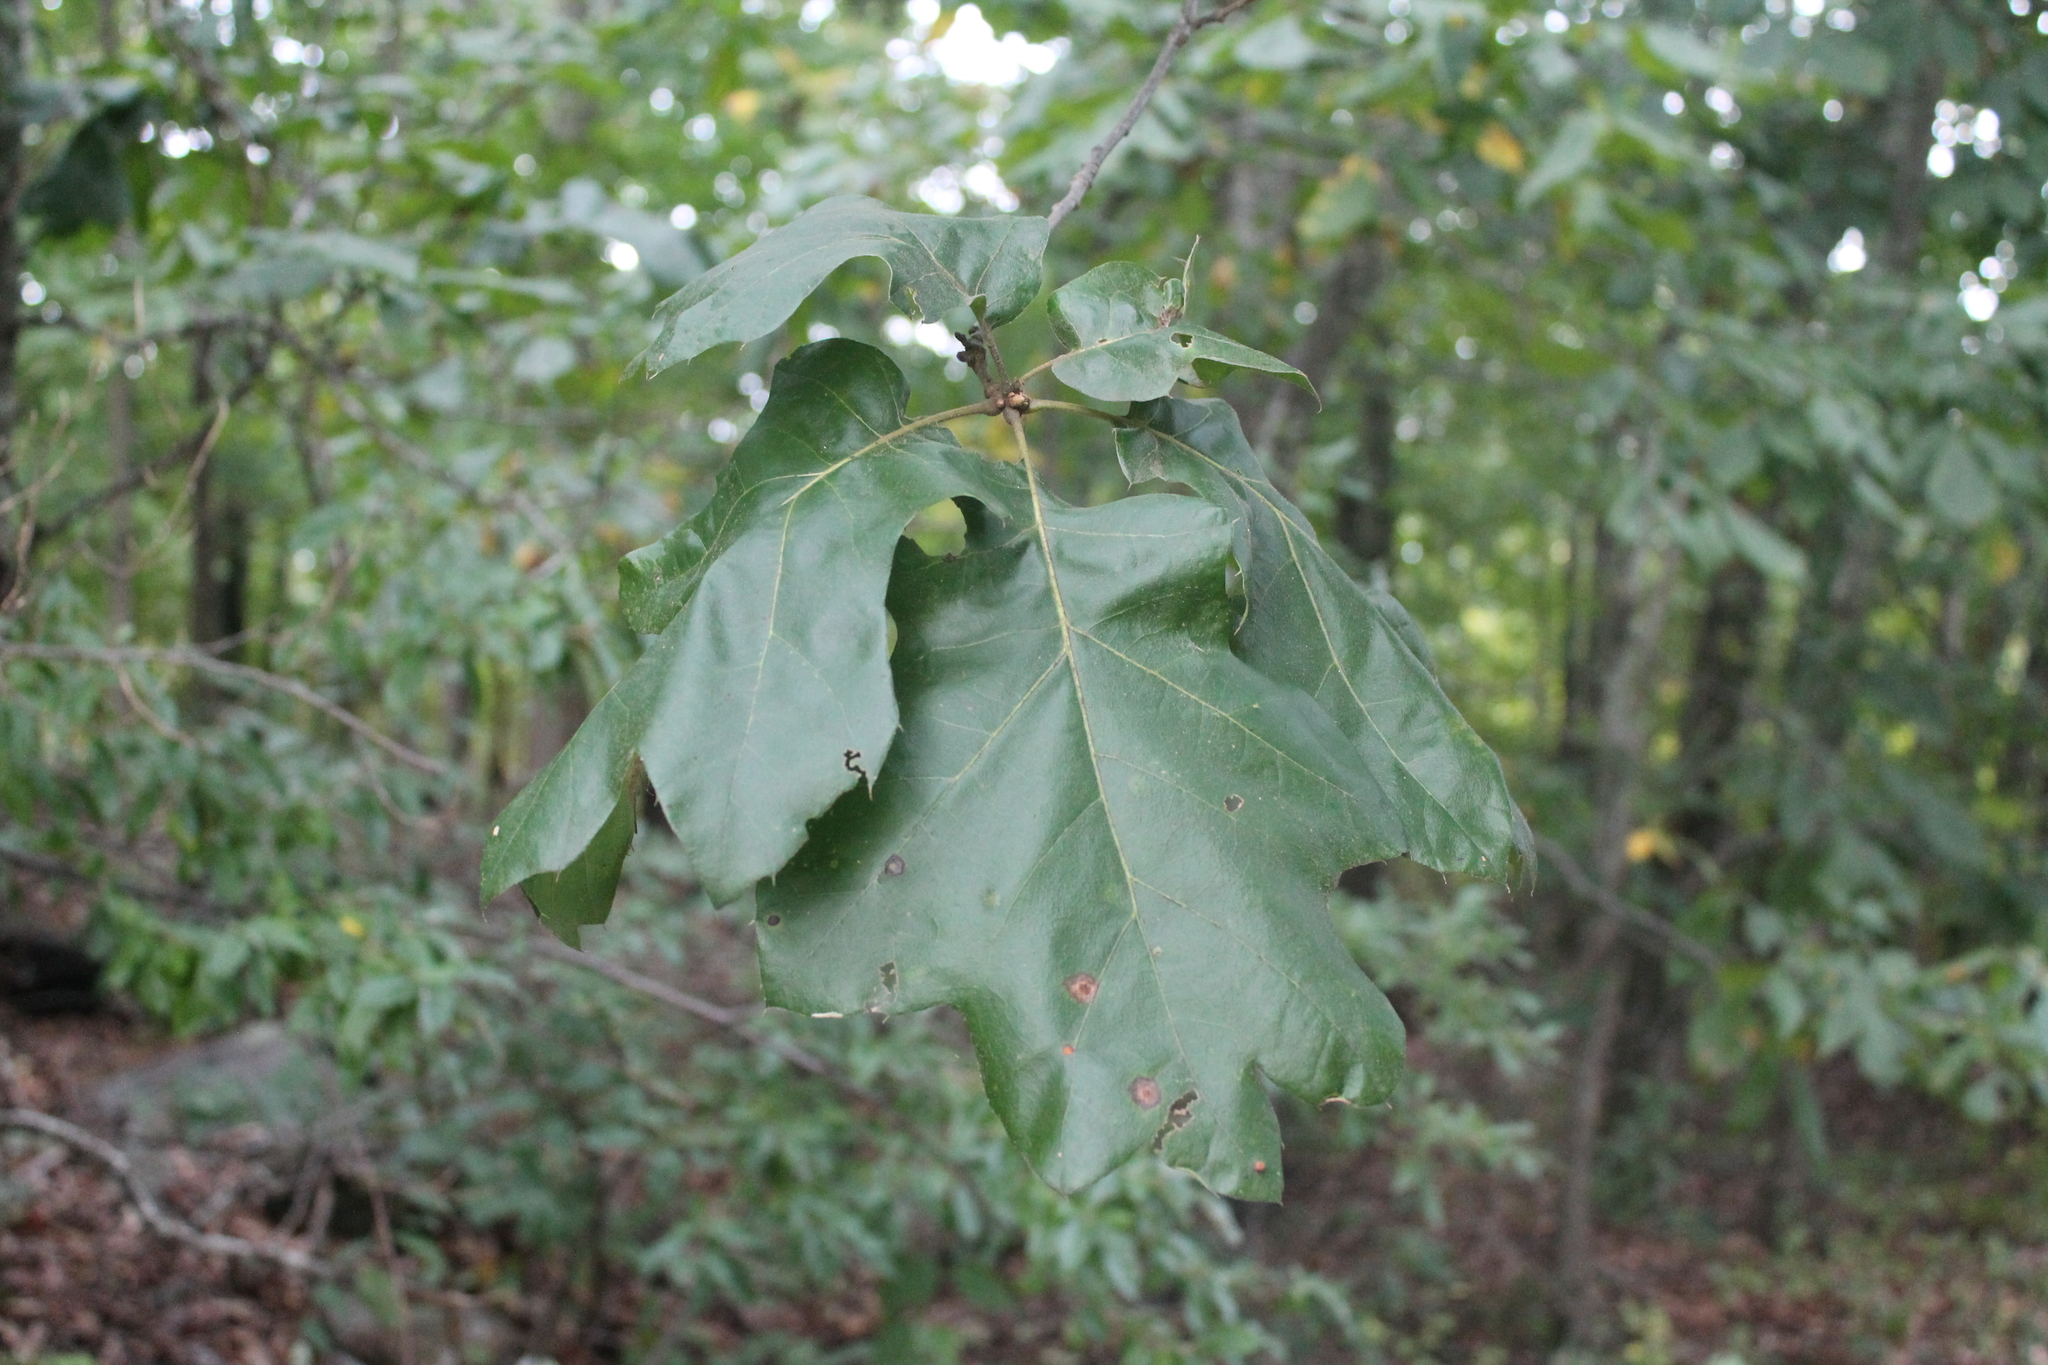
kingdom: Plantae
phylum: Tracheophyta
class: Magnoliopsida
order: Fagales
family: Fagaceae
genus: Quercus
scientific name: Quercus velutina
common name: Black oak
